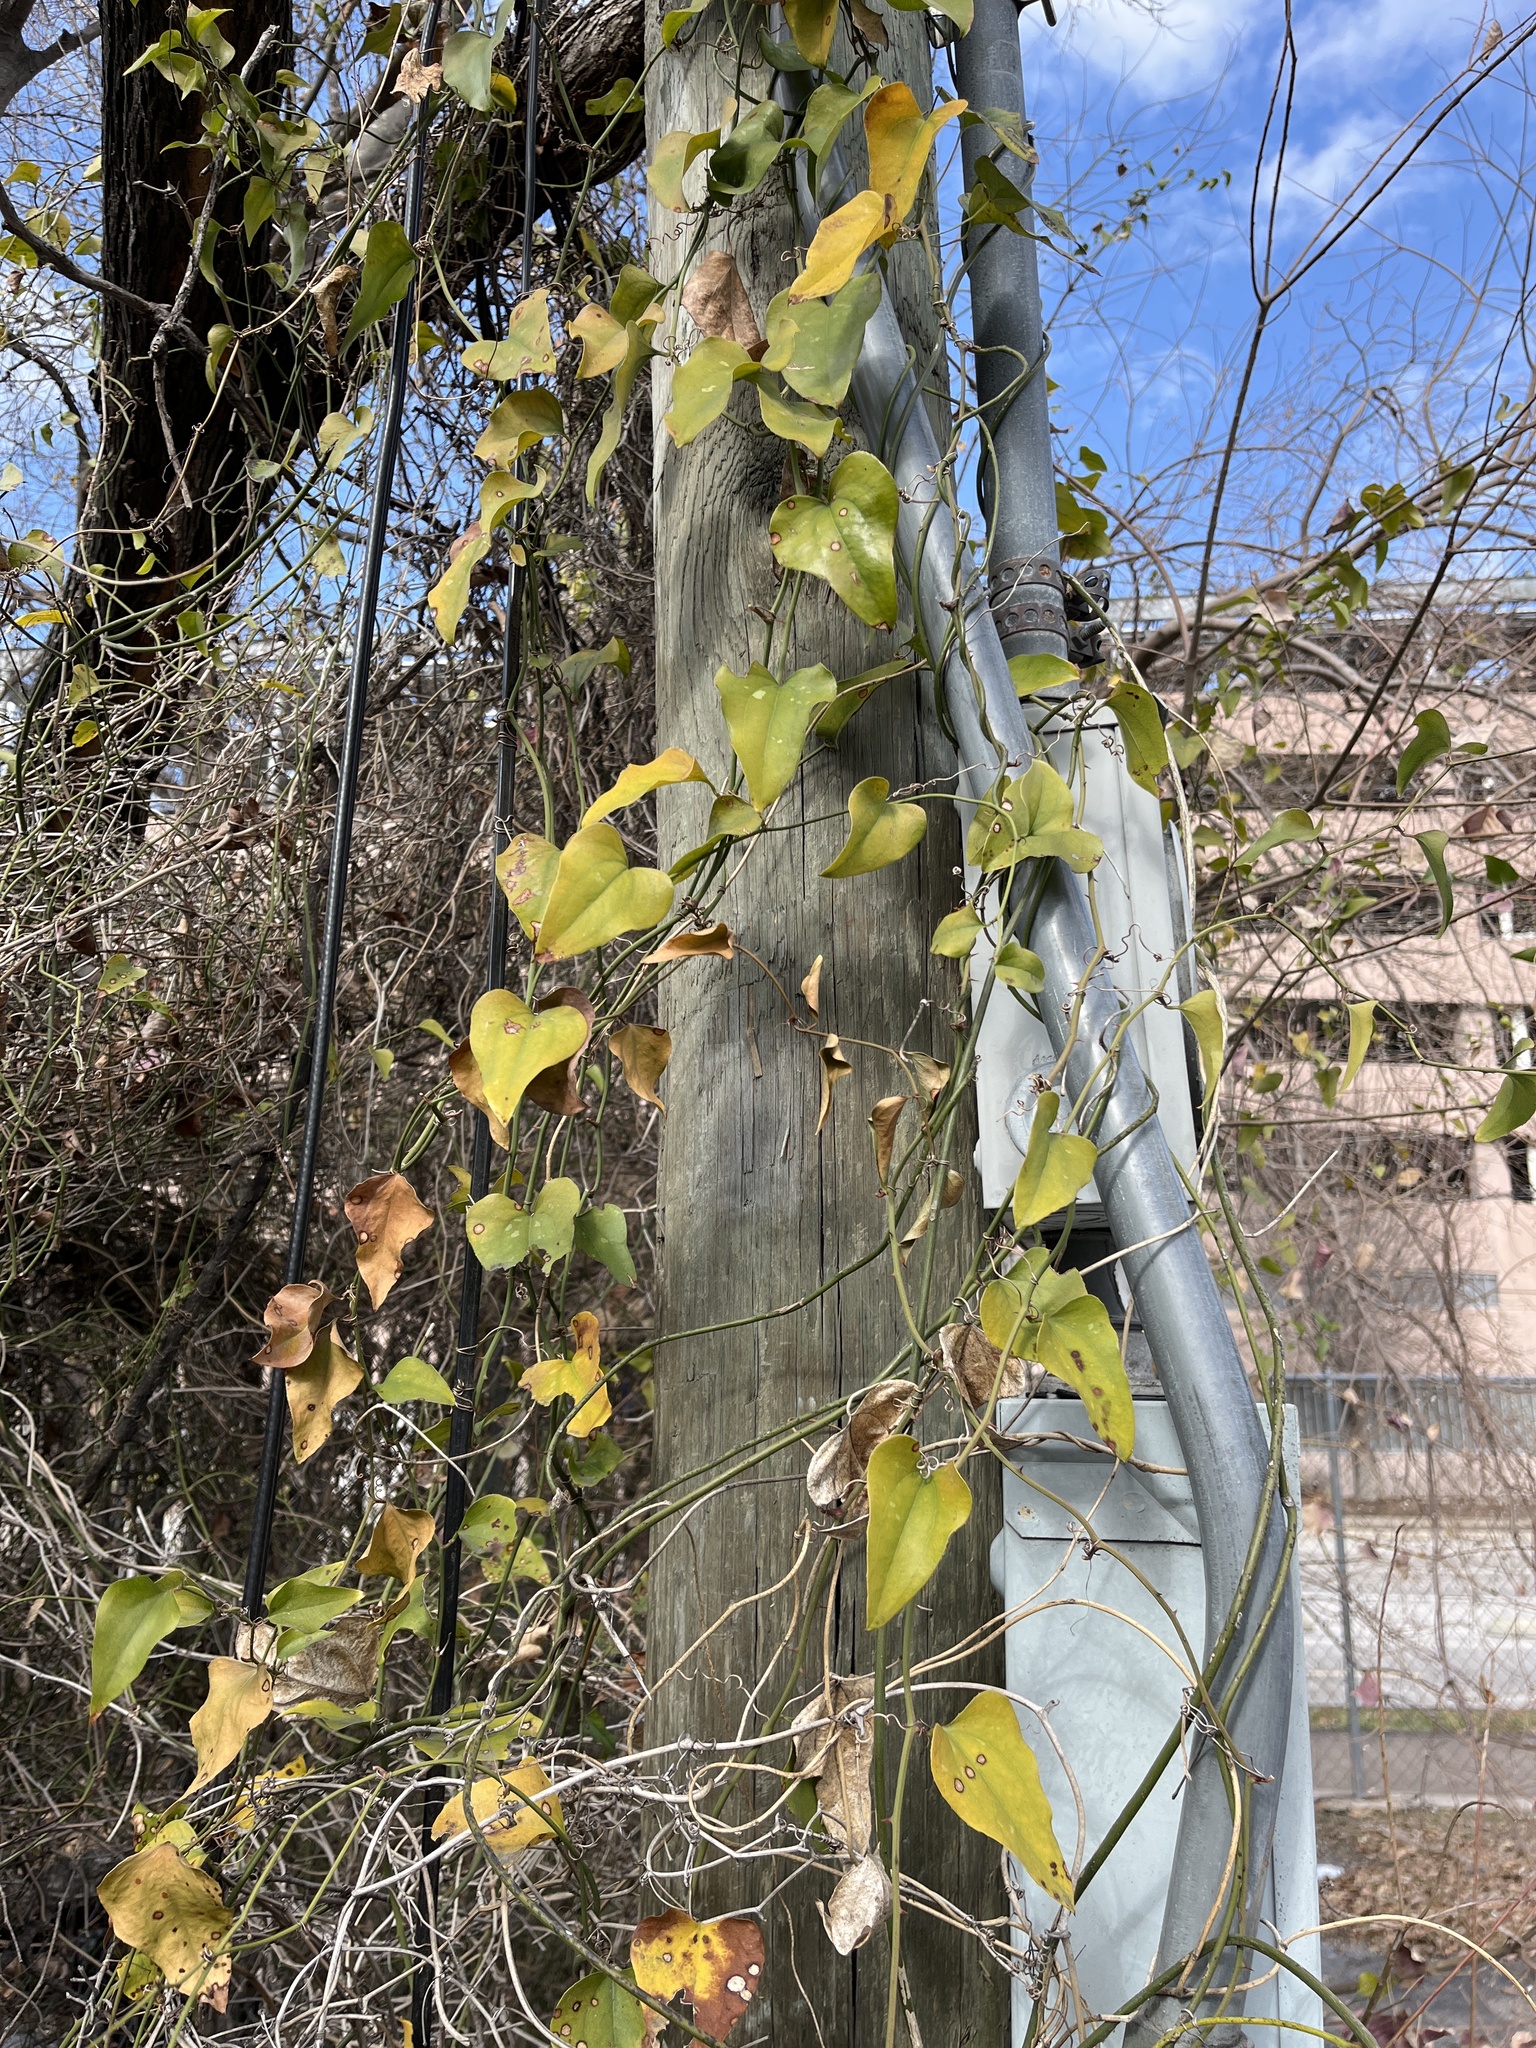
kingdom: Plantae
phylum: Tracheophyta
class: Liliopsida
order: Liliales
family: Smilacaceae
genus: Smilax
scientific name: Smilax bona-nox
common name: Catbrier
